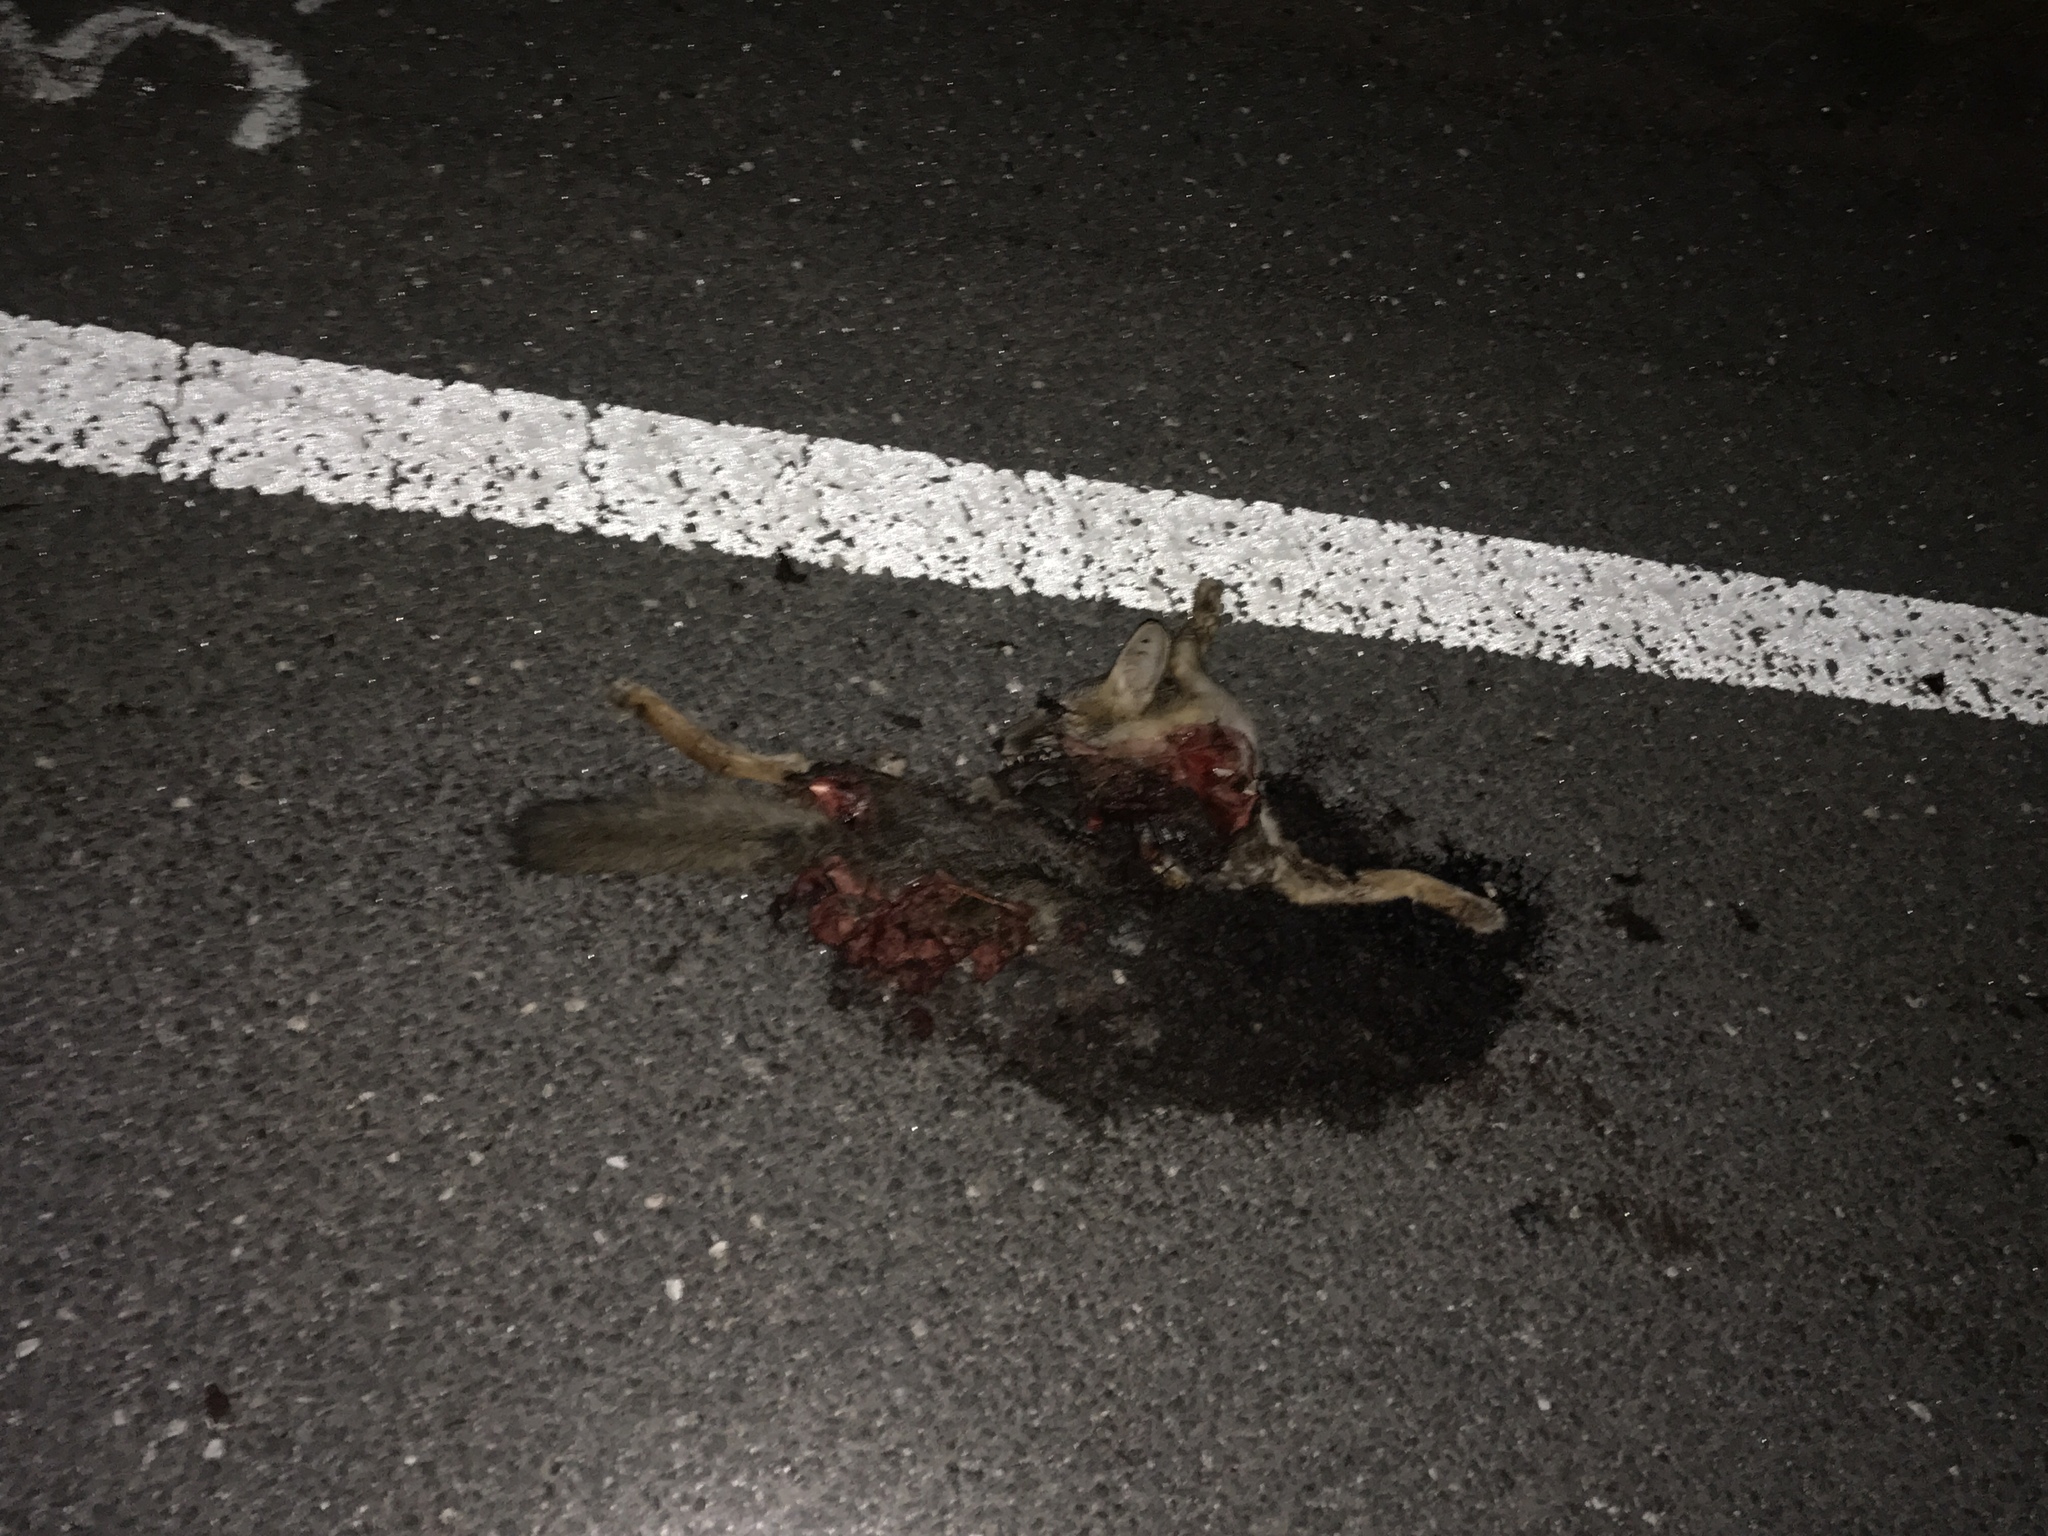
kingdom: Animalia
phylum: Chordata
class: Mammalia
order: Carnivora
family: Canidae
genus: Urocyon
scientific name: Urocyon cinereoargenteus
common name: Gray fox
